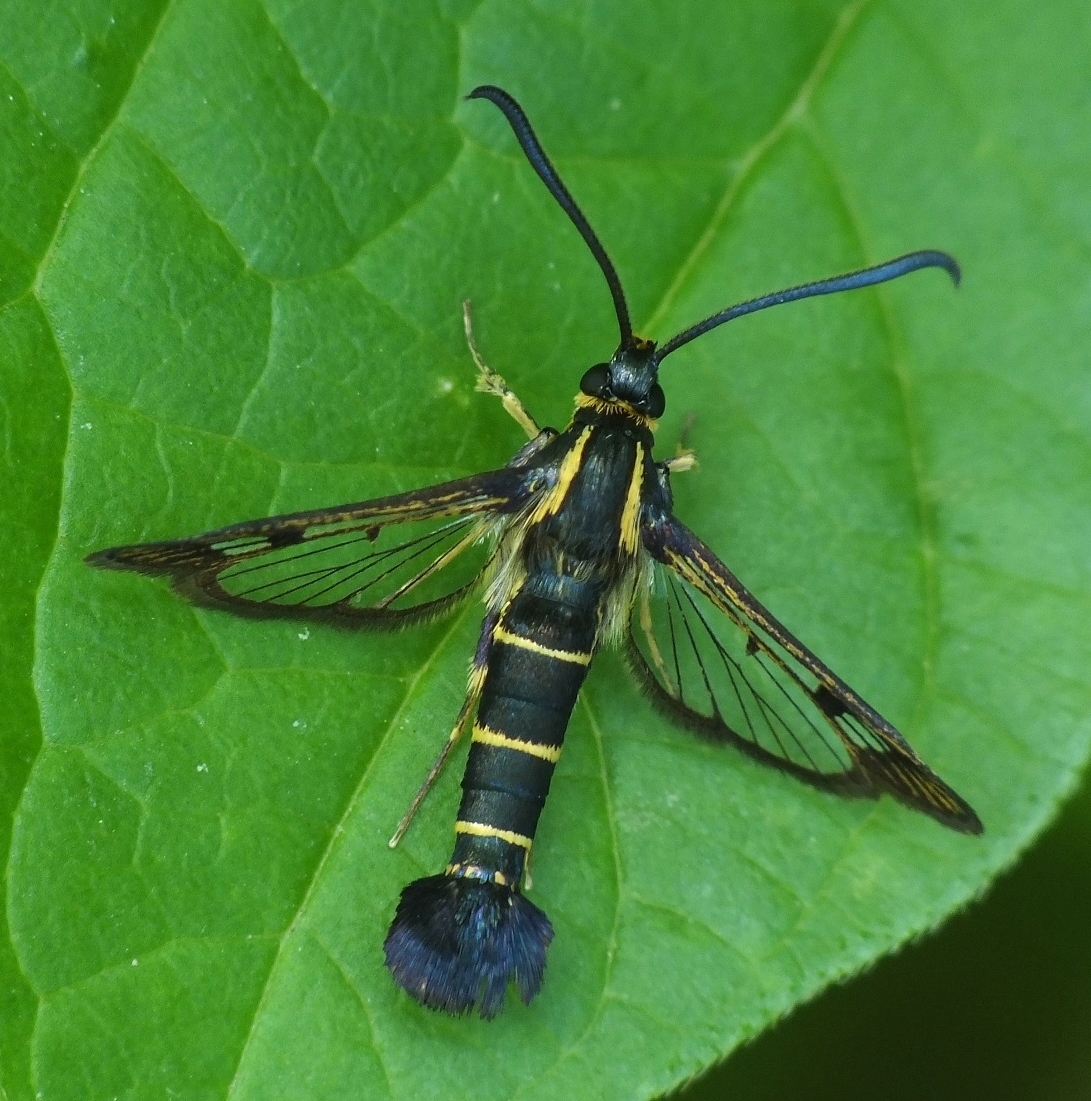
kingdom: Animalia
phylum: Arthropoda
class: Insecta
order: Lepidoptera
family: Sesiidae
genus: Synanthedon
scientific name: Synanthedon tipuliformis
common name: Currant clearwing
